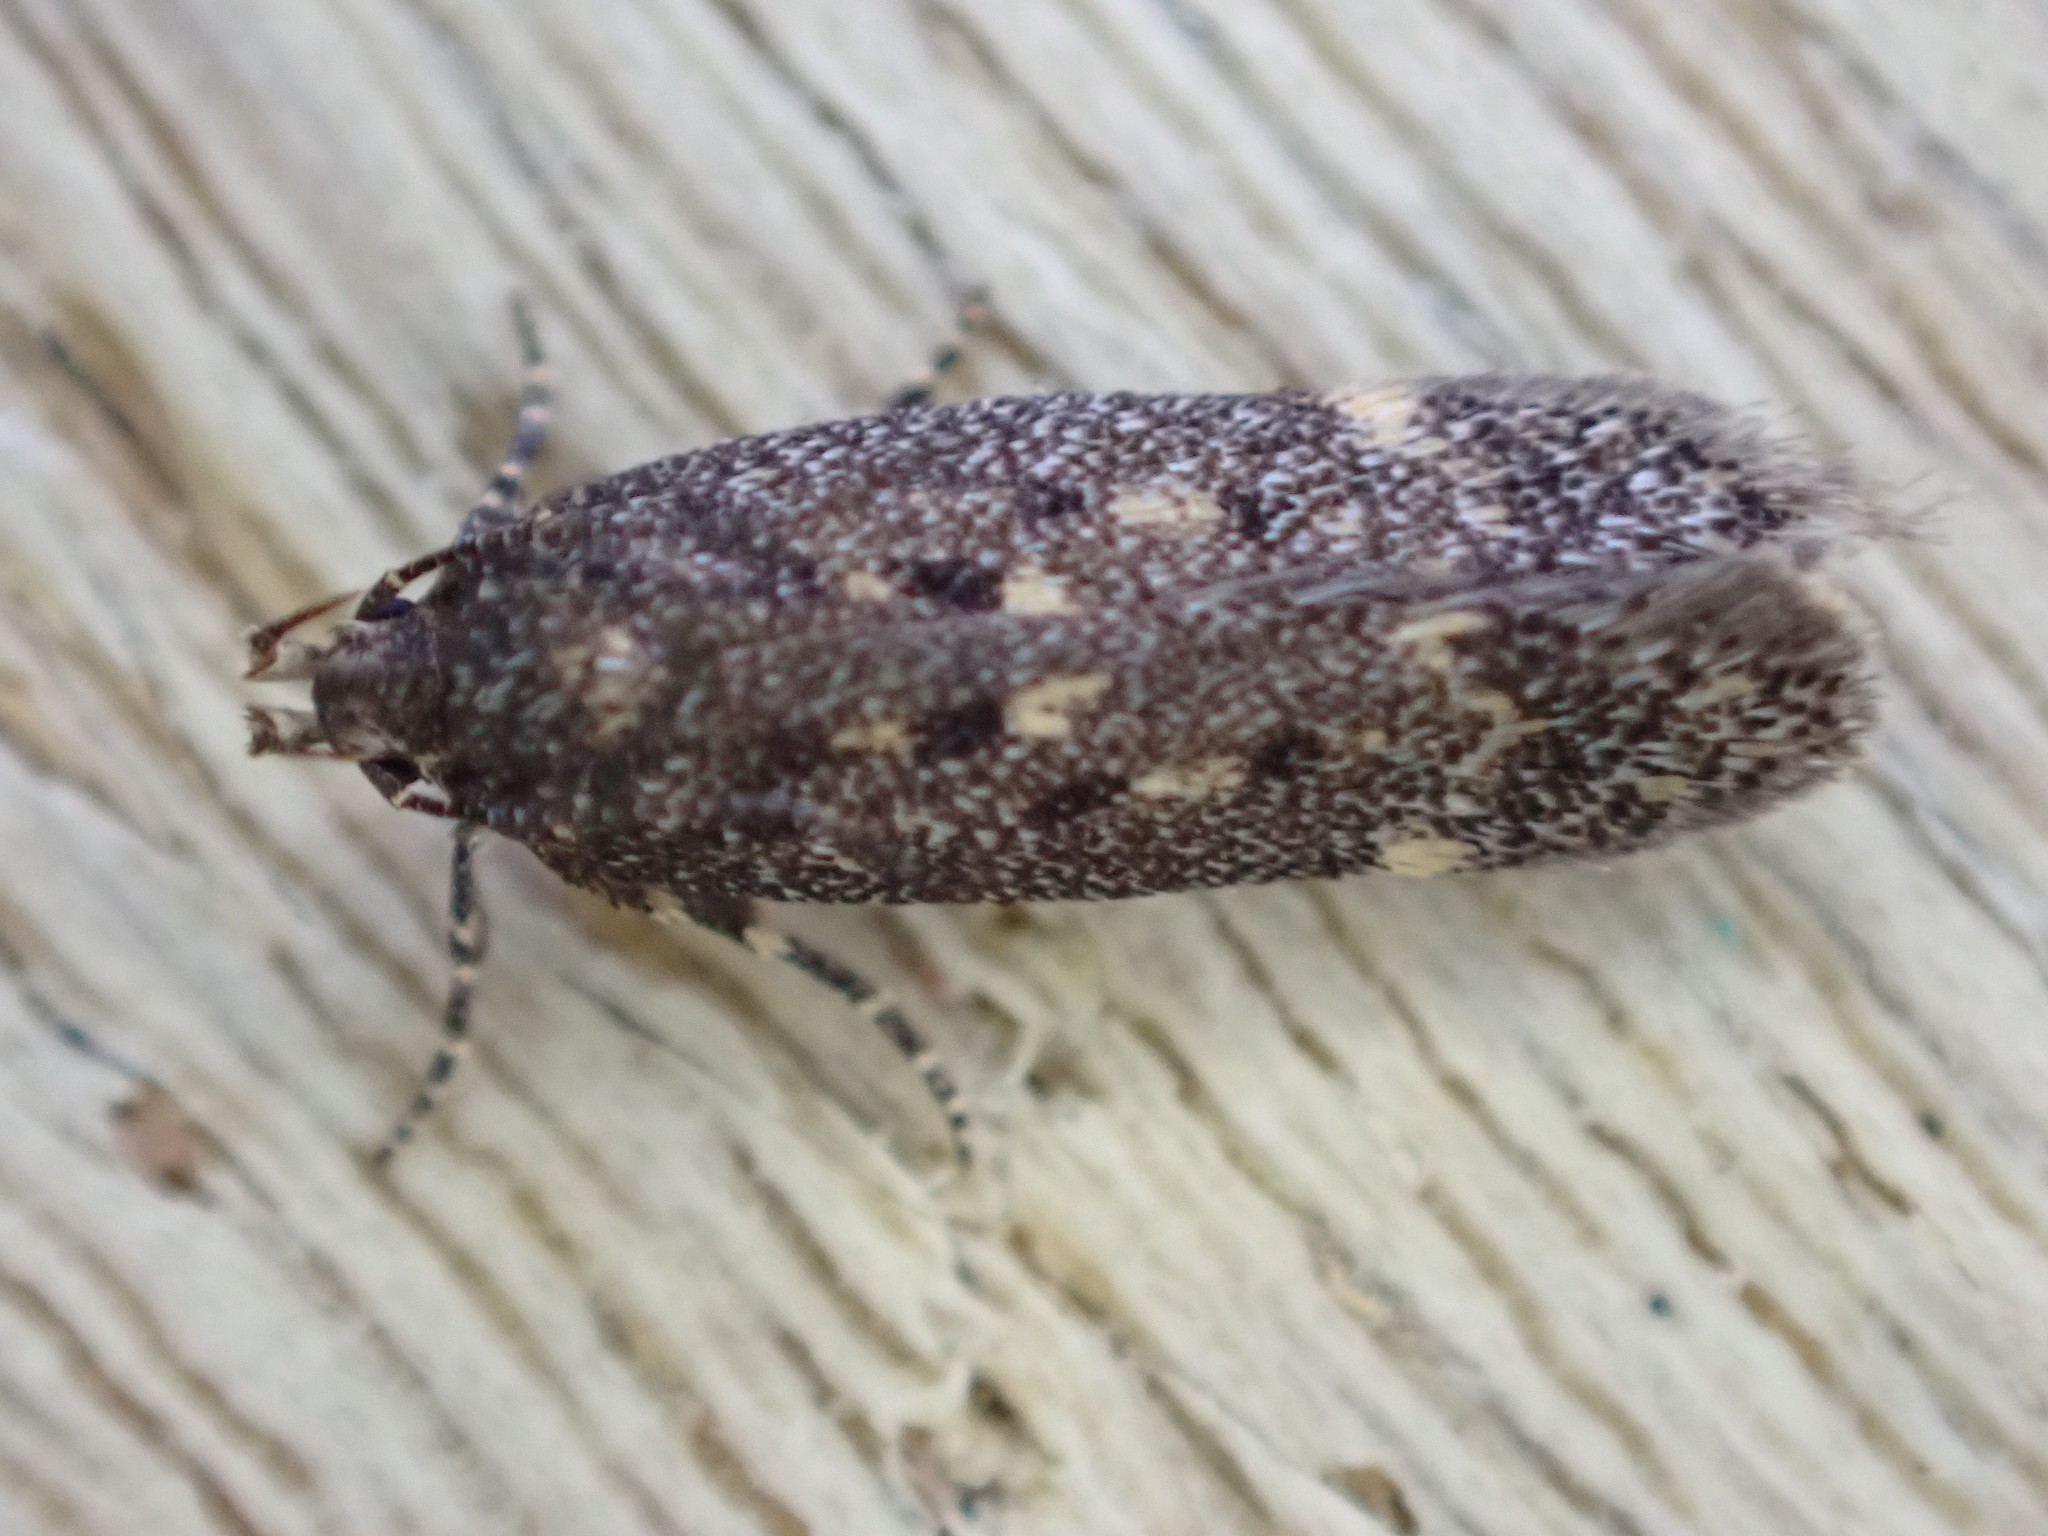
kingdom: Animalia
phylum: Arthropoda
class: Insecta
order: Lepidoptera
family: Gelechiidae
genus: Bryotropha
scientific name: Bryotropha affinis
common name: Dark groundling
